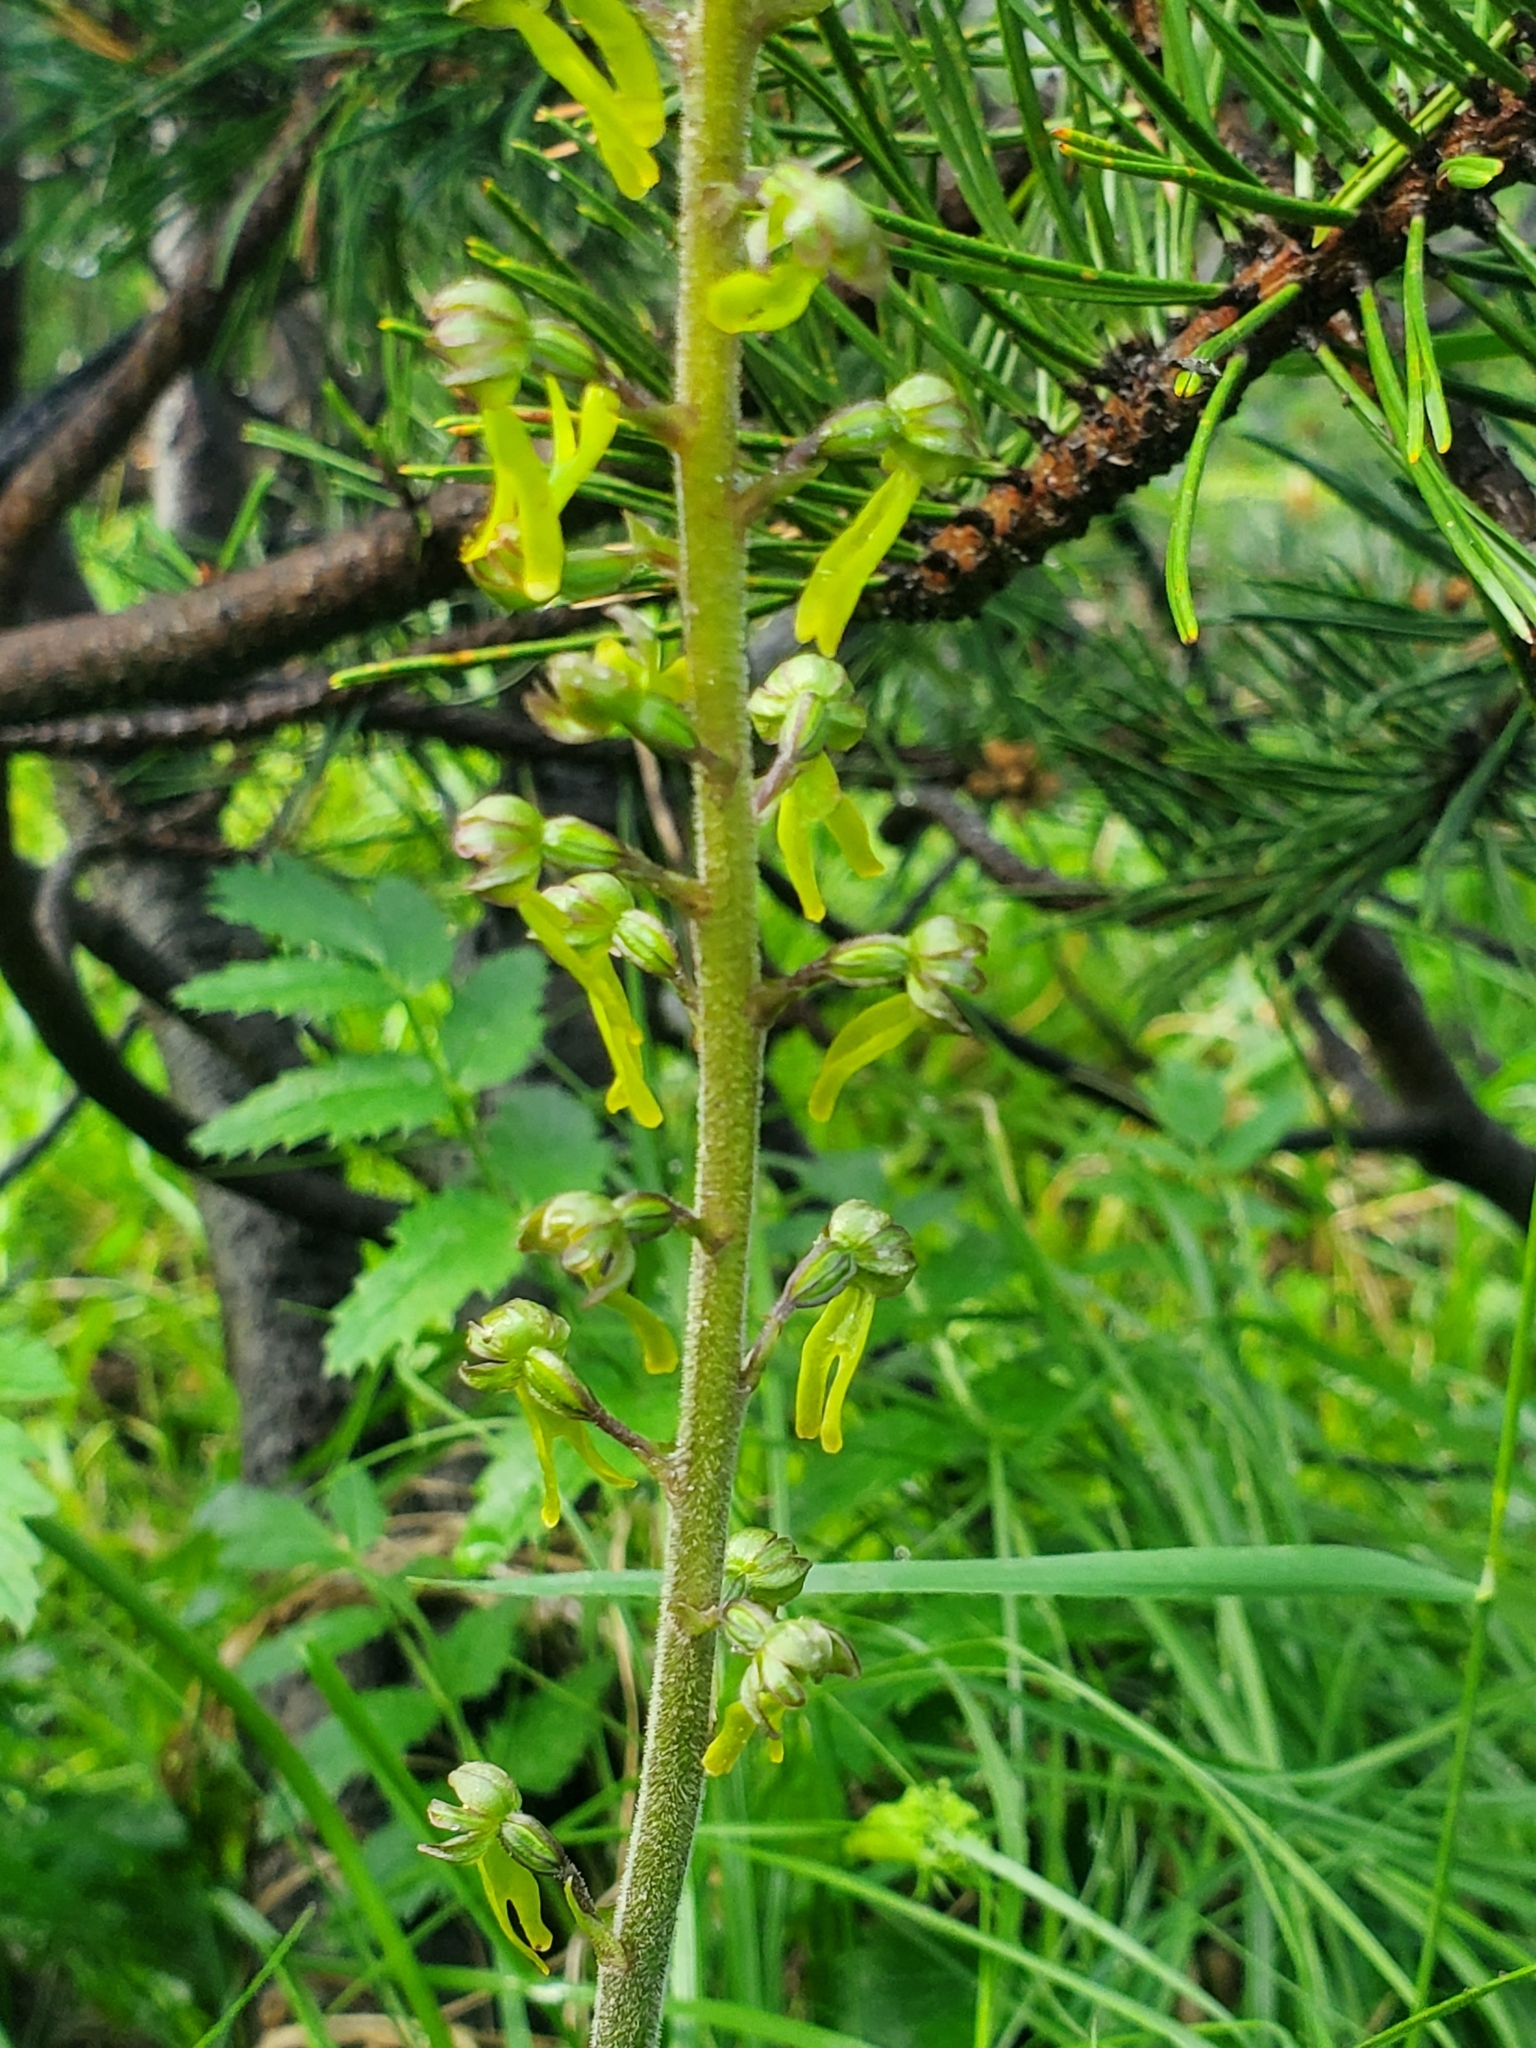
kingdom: Plantae
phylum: Tracheophyta
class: Liliopsida
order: Asparagales
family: Orchidaceae
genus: Neottia
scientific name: Neottia ovata
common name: Common twayblade
